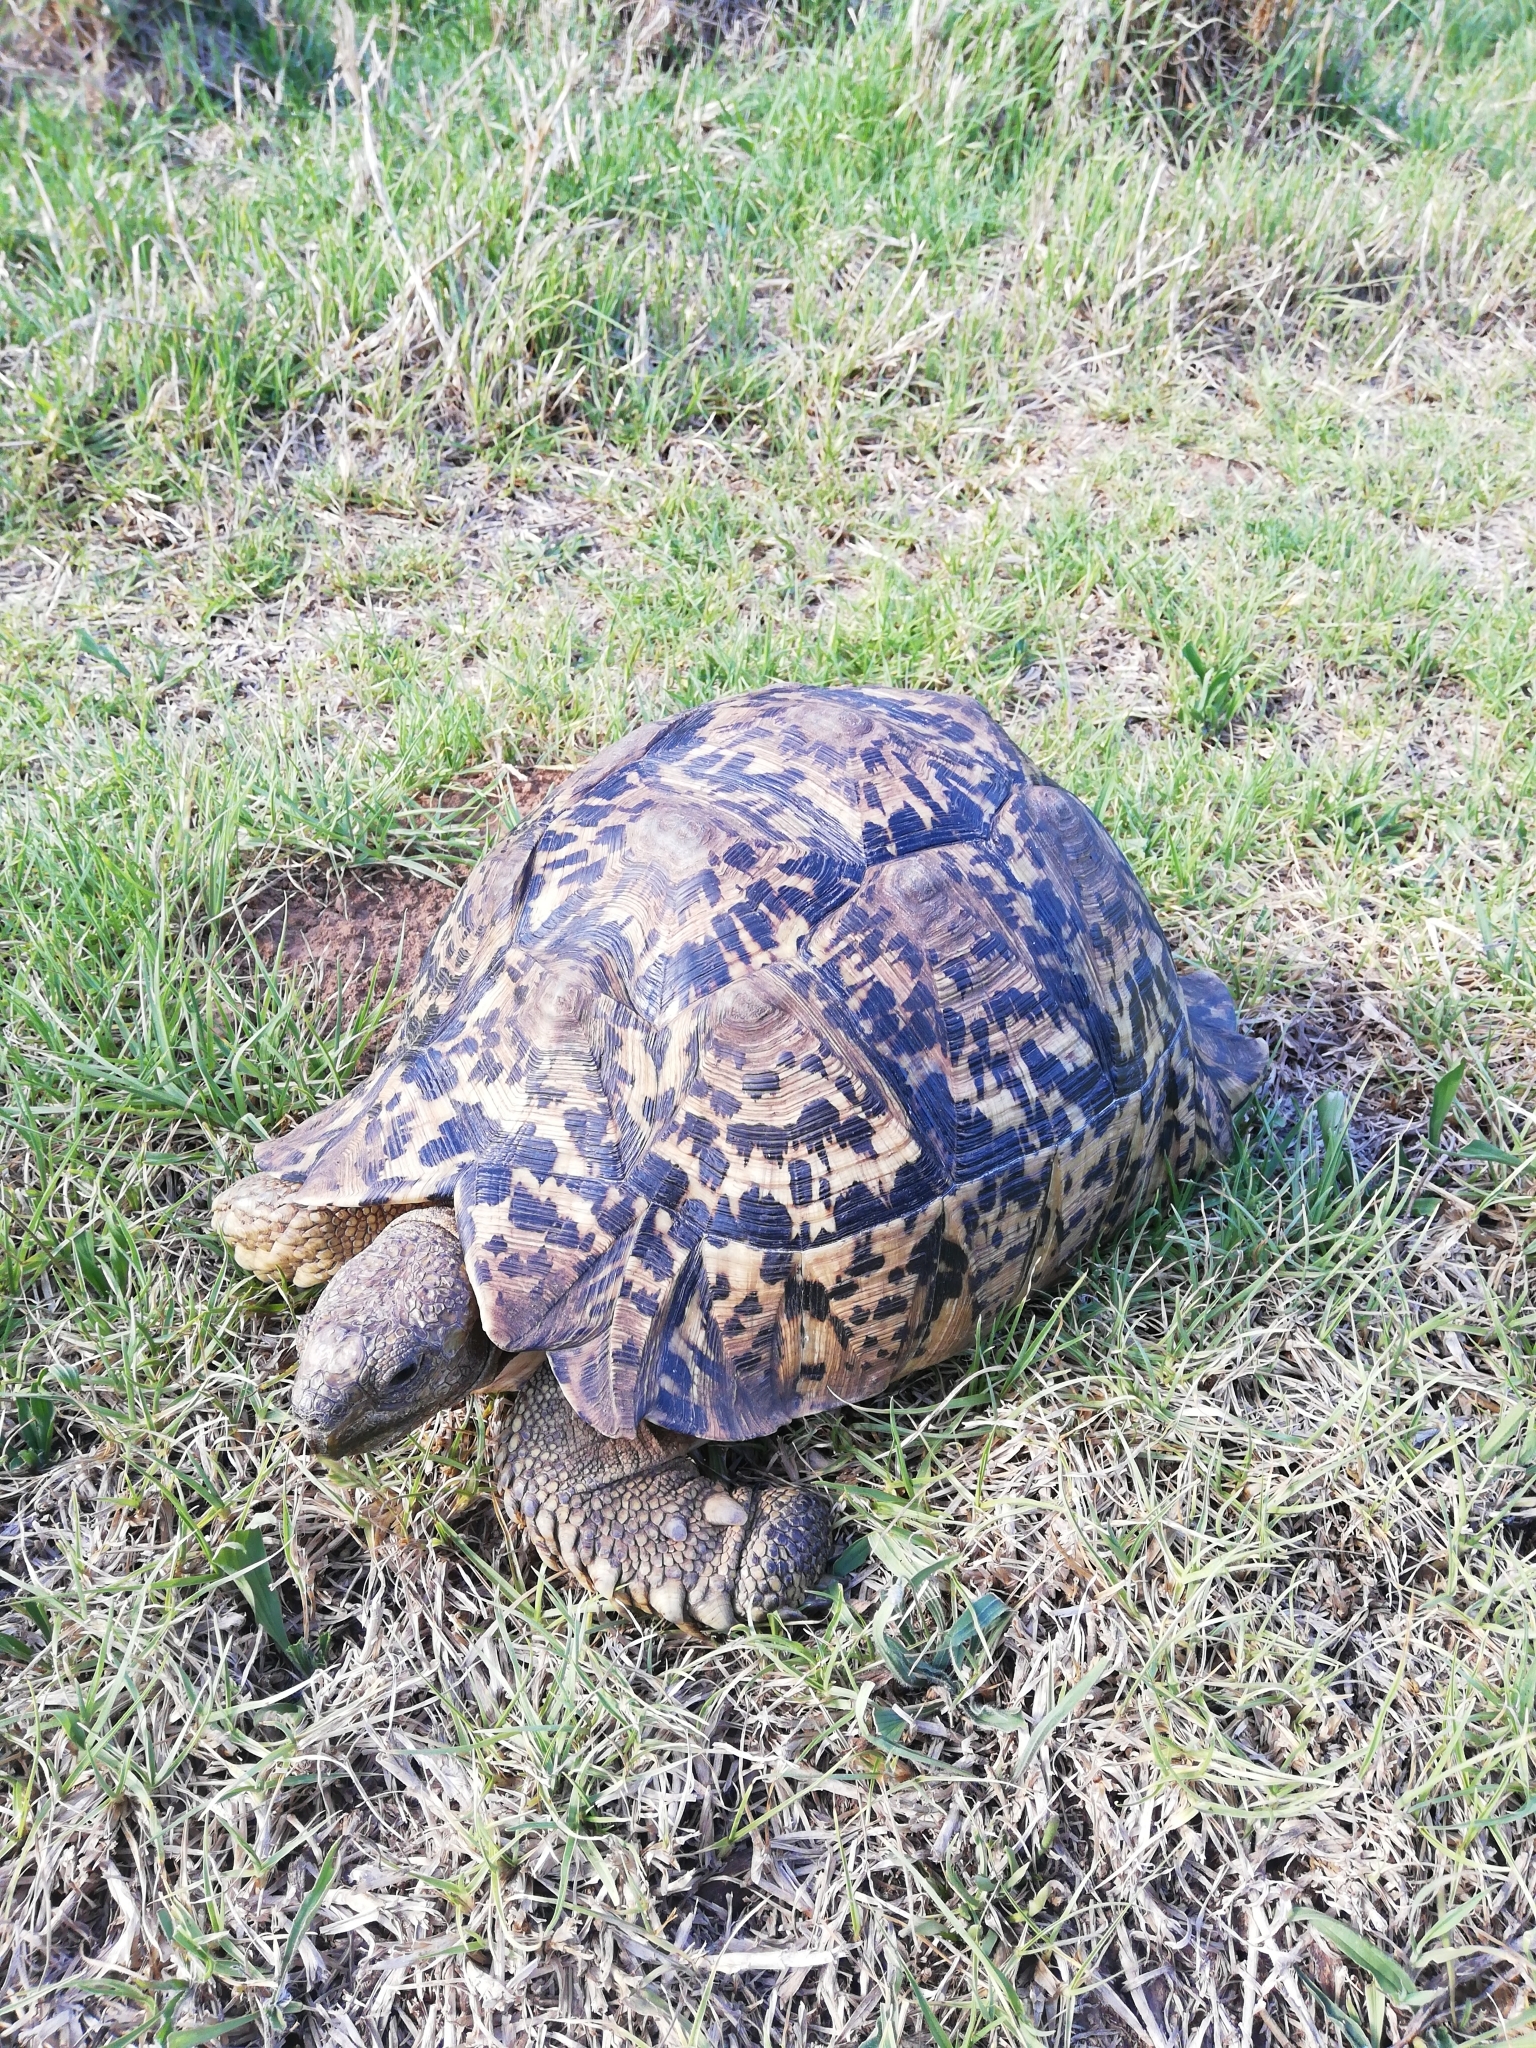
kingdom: Animalia
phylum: Chordata
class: Testudines
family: Testudinidae
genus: Stigmochelys
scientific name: Stigmochelys pardalis
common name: Leopard tortoise
